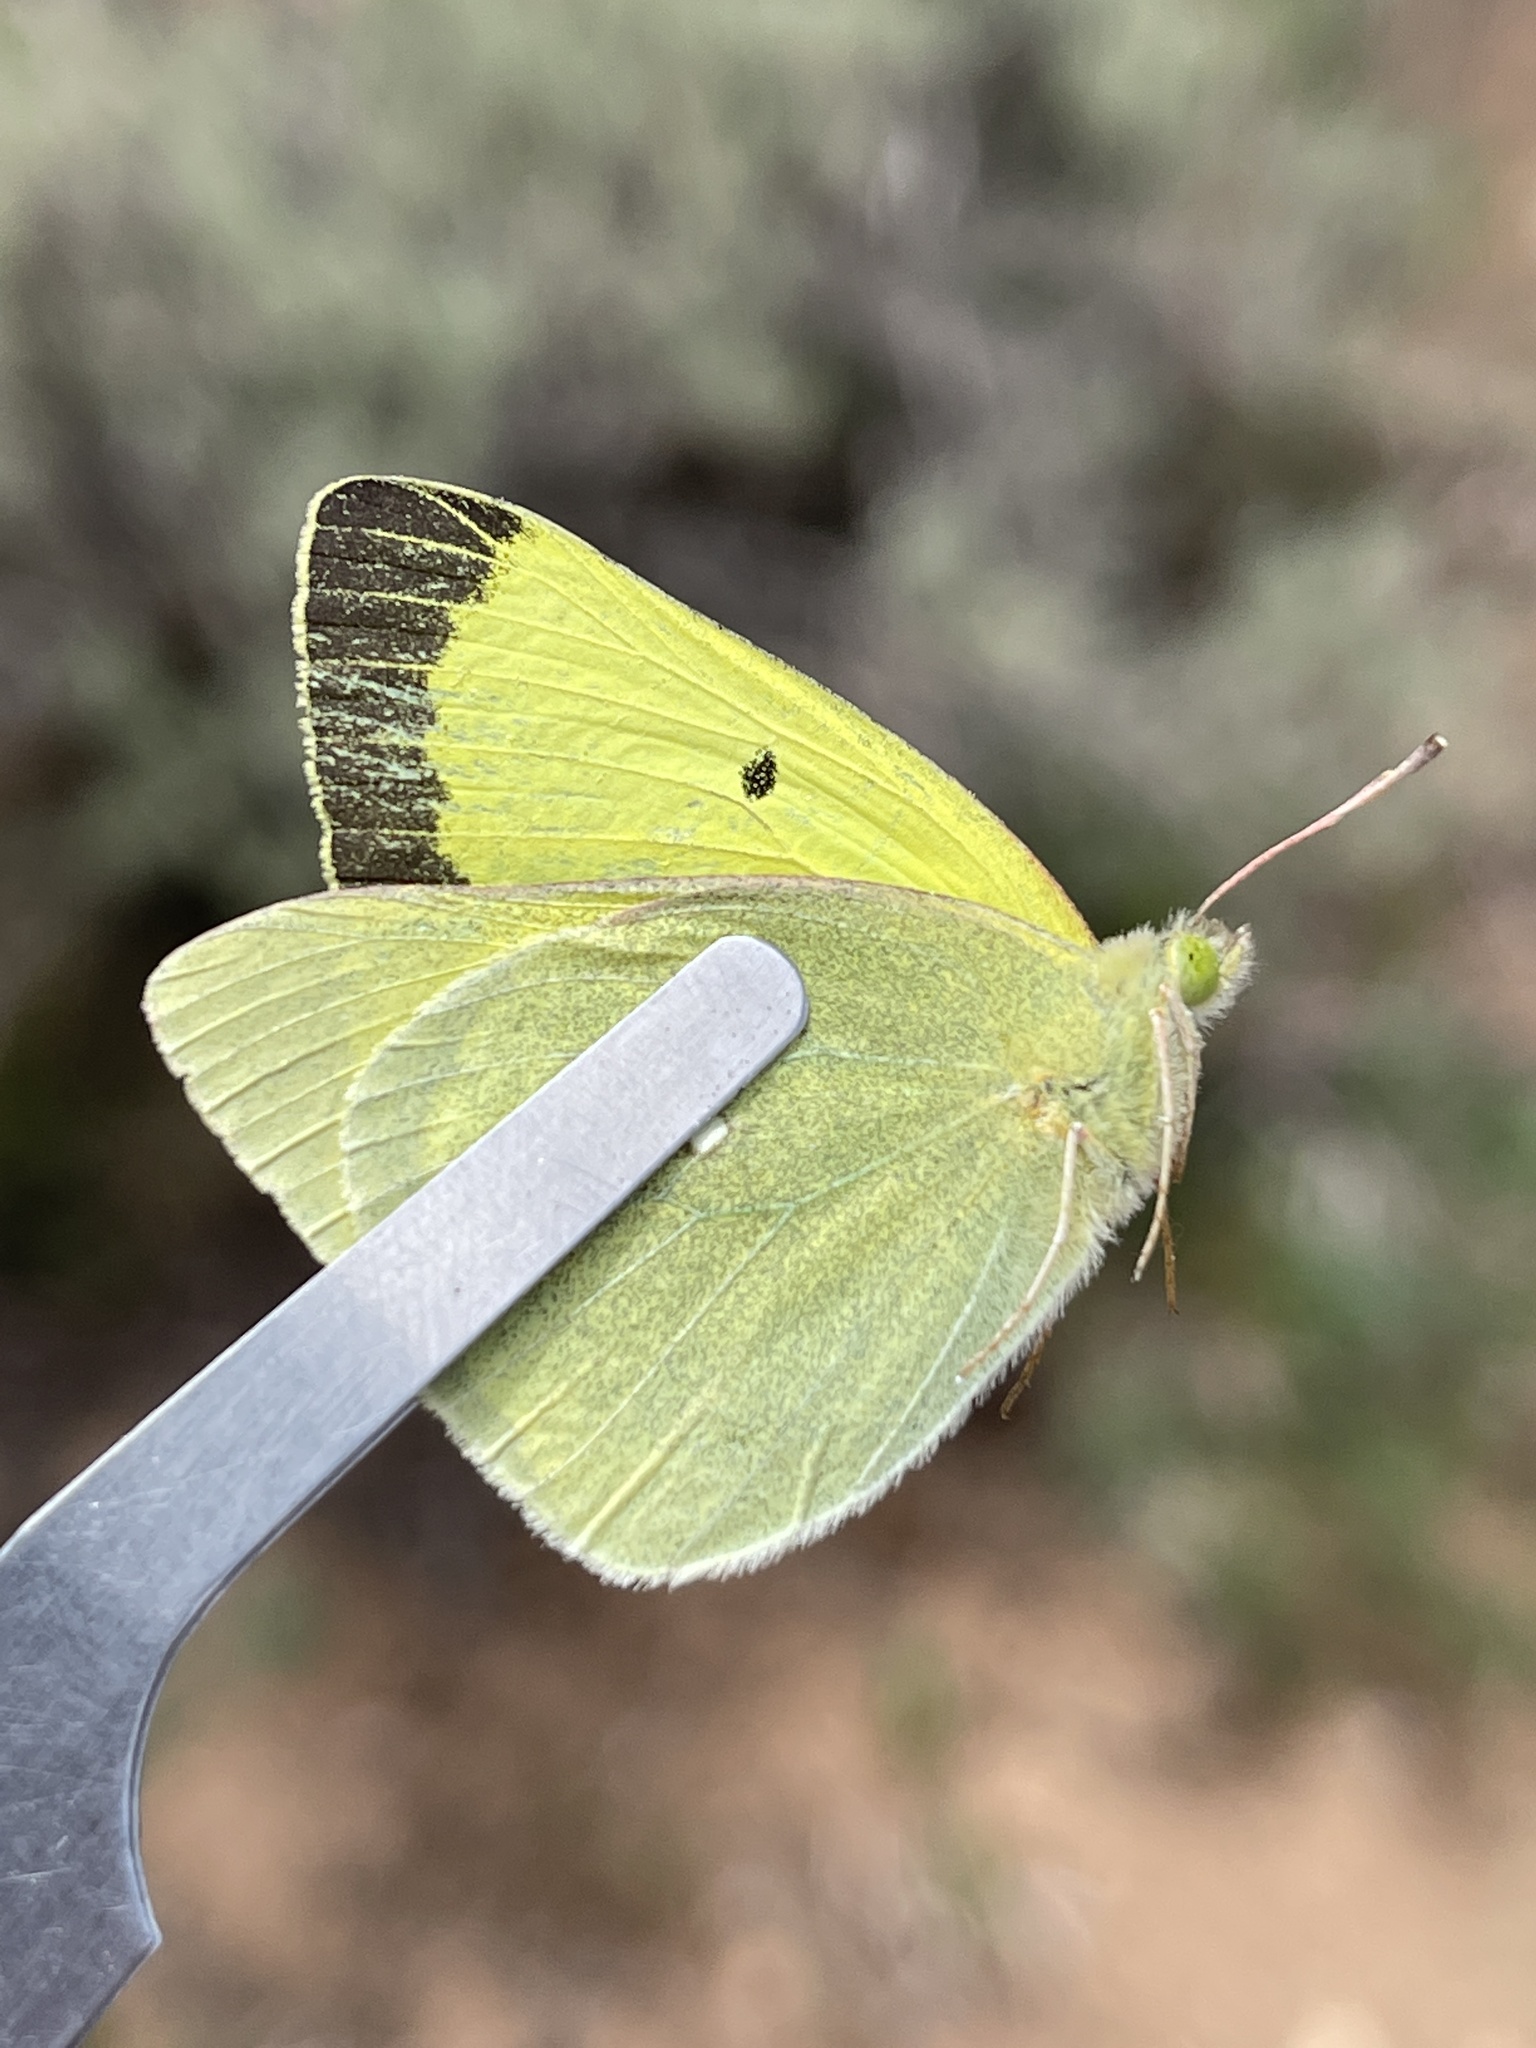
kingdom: Animalia
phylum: Arthropoda
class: Insecta
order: Lepidoptera
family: Pieridae
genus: Colias
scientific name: Colias alexandra
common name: Alexandra sulphur
